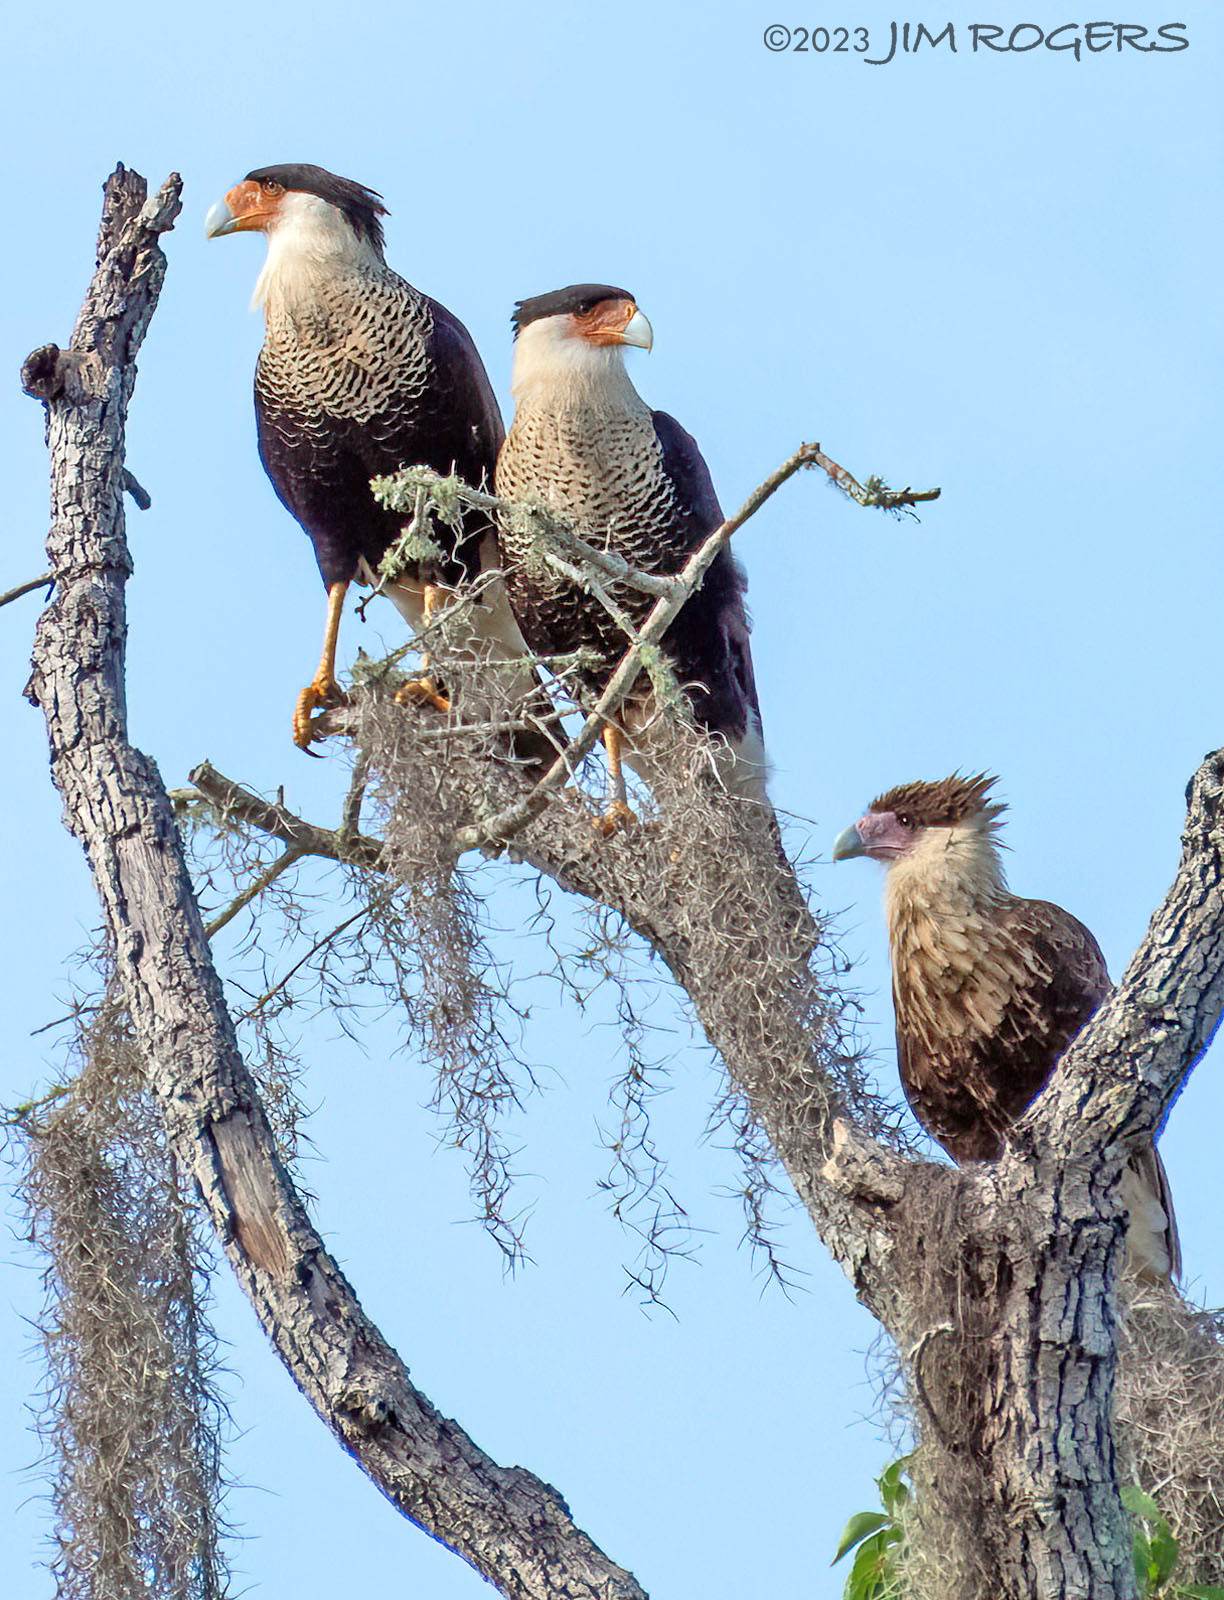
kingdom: Animalia
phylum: Chordata
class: Aves
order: Falconiformes
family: Falconidae
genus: Caracara
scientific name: Caracara plancus
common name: Southern caracara
